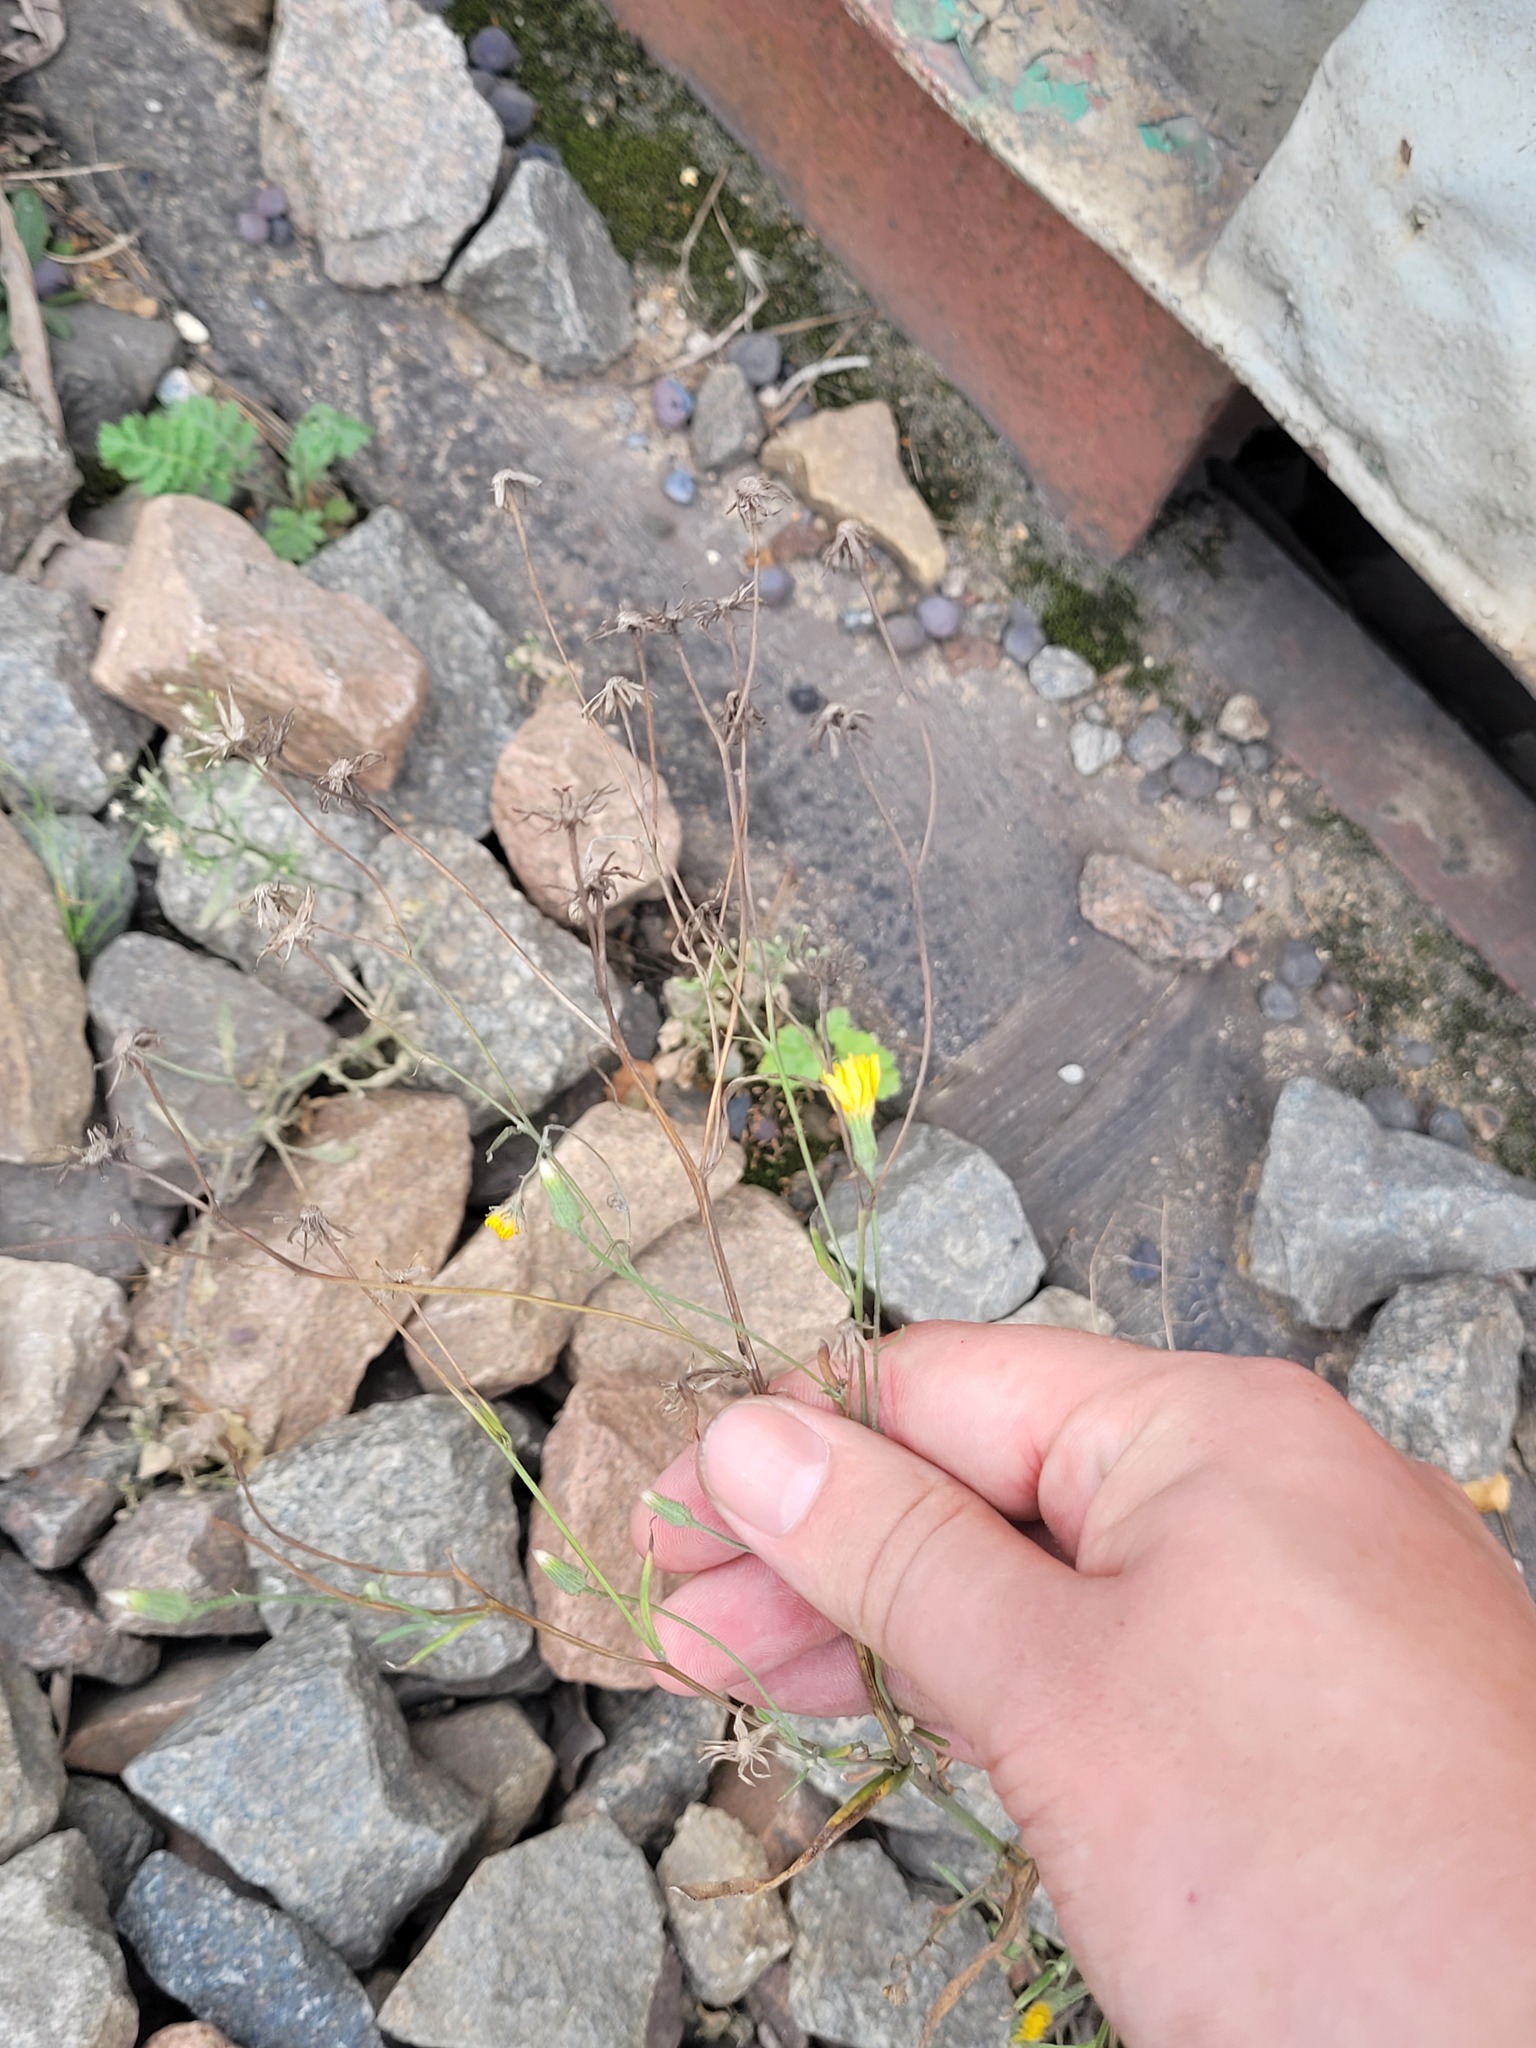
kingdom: Plantae
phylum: Tracheophyta
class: Magnoliopsida
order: Asterales
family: Asteraceae
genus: Crepis
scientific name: Crepis tectorum
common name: Narrow-leaved hawk's-beard
